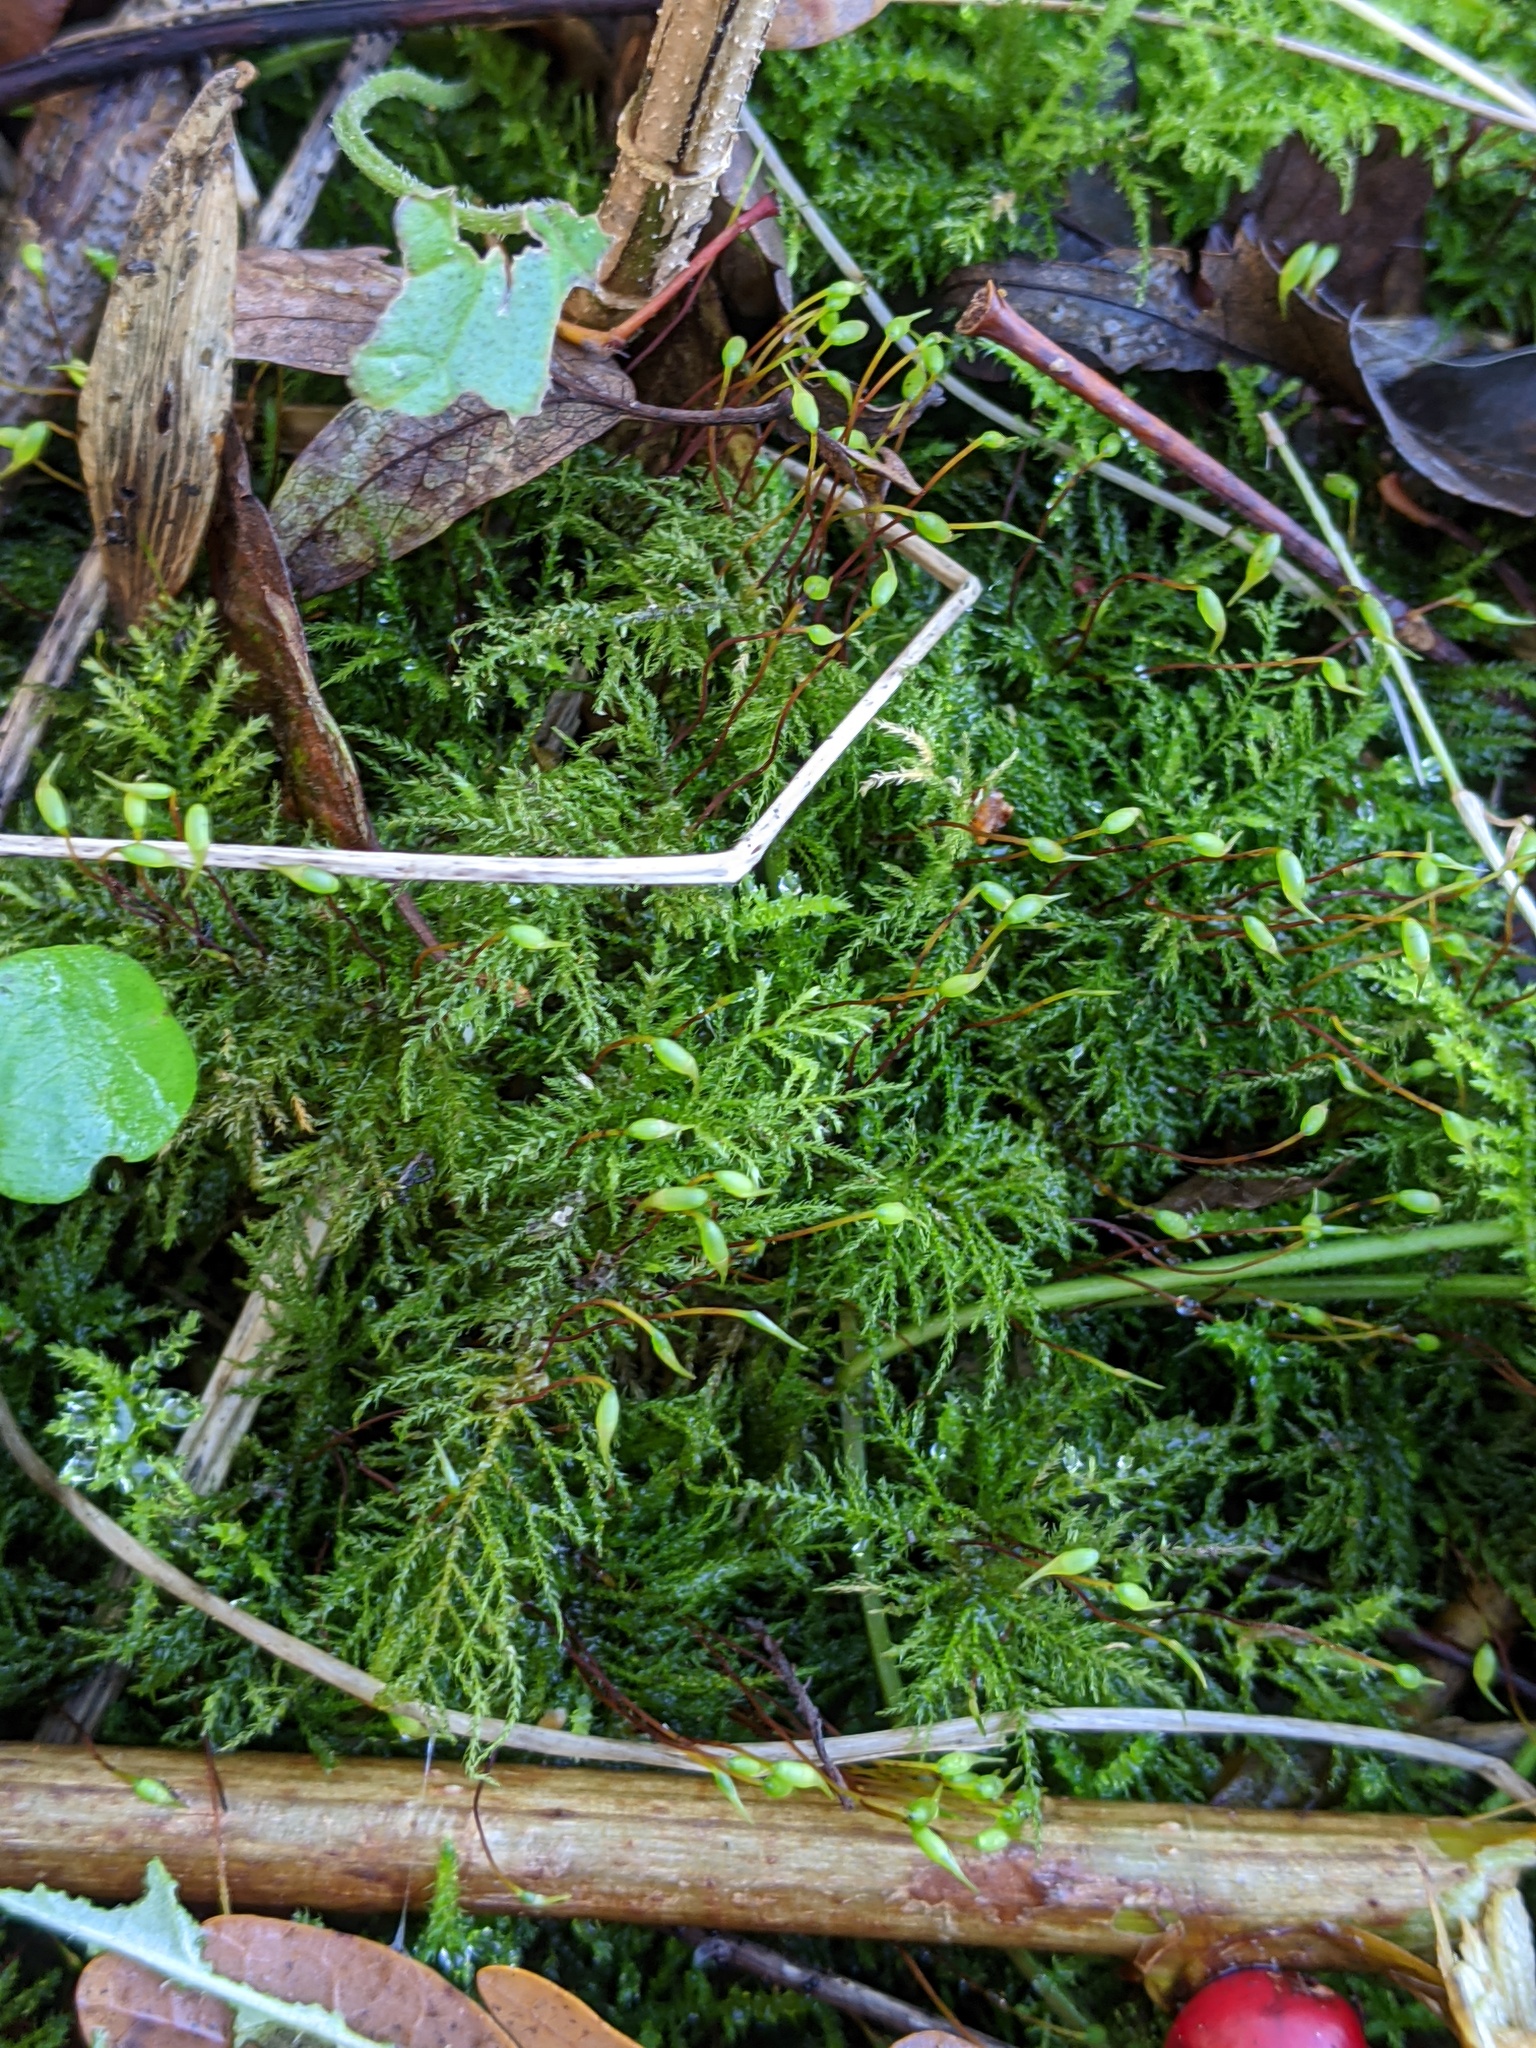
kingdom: Plantae
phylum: Bryophyta
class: Bryopsida
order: Hypnales
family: Brachytheciaceae
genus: Kindbergia
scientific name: Kindbergia praelonga
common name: Slender beaked moss
